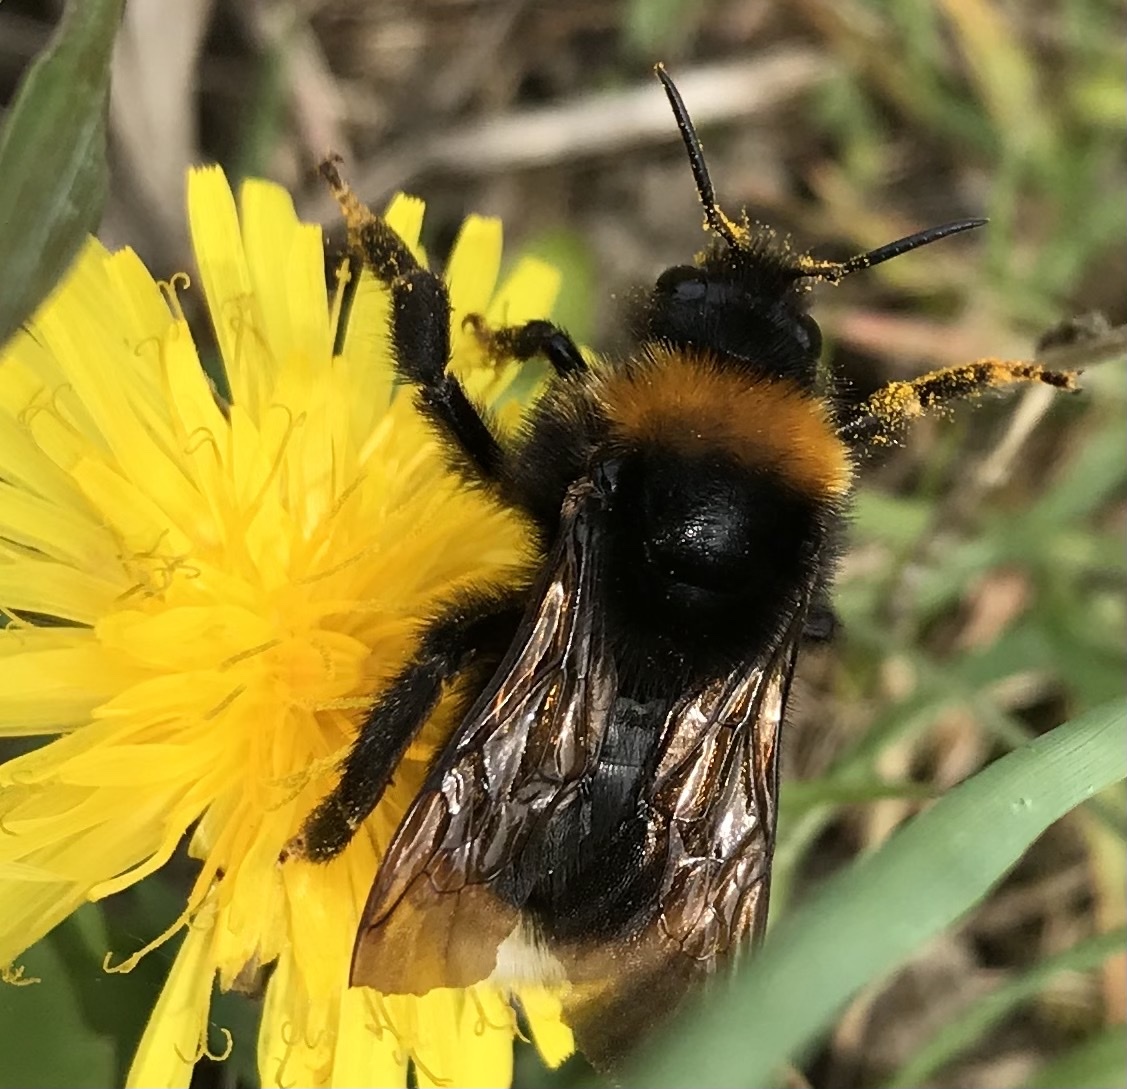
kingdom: Animalia
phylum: Arthropoda
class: Insecta
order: Hymenoptera
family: Apidae
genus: Bombus
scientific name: Bombus vestalis
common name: Vestal cuckoo bee
